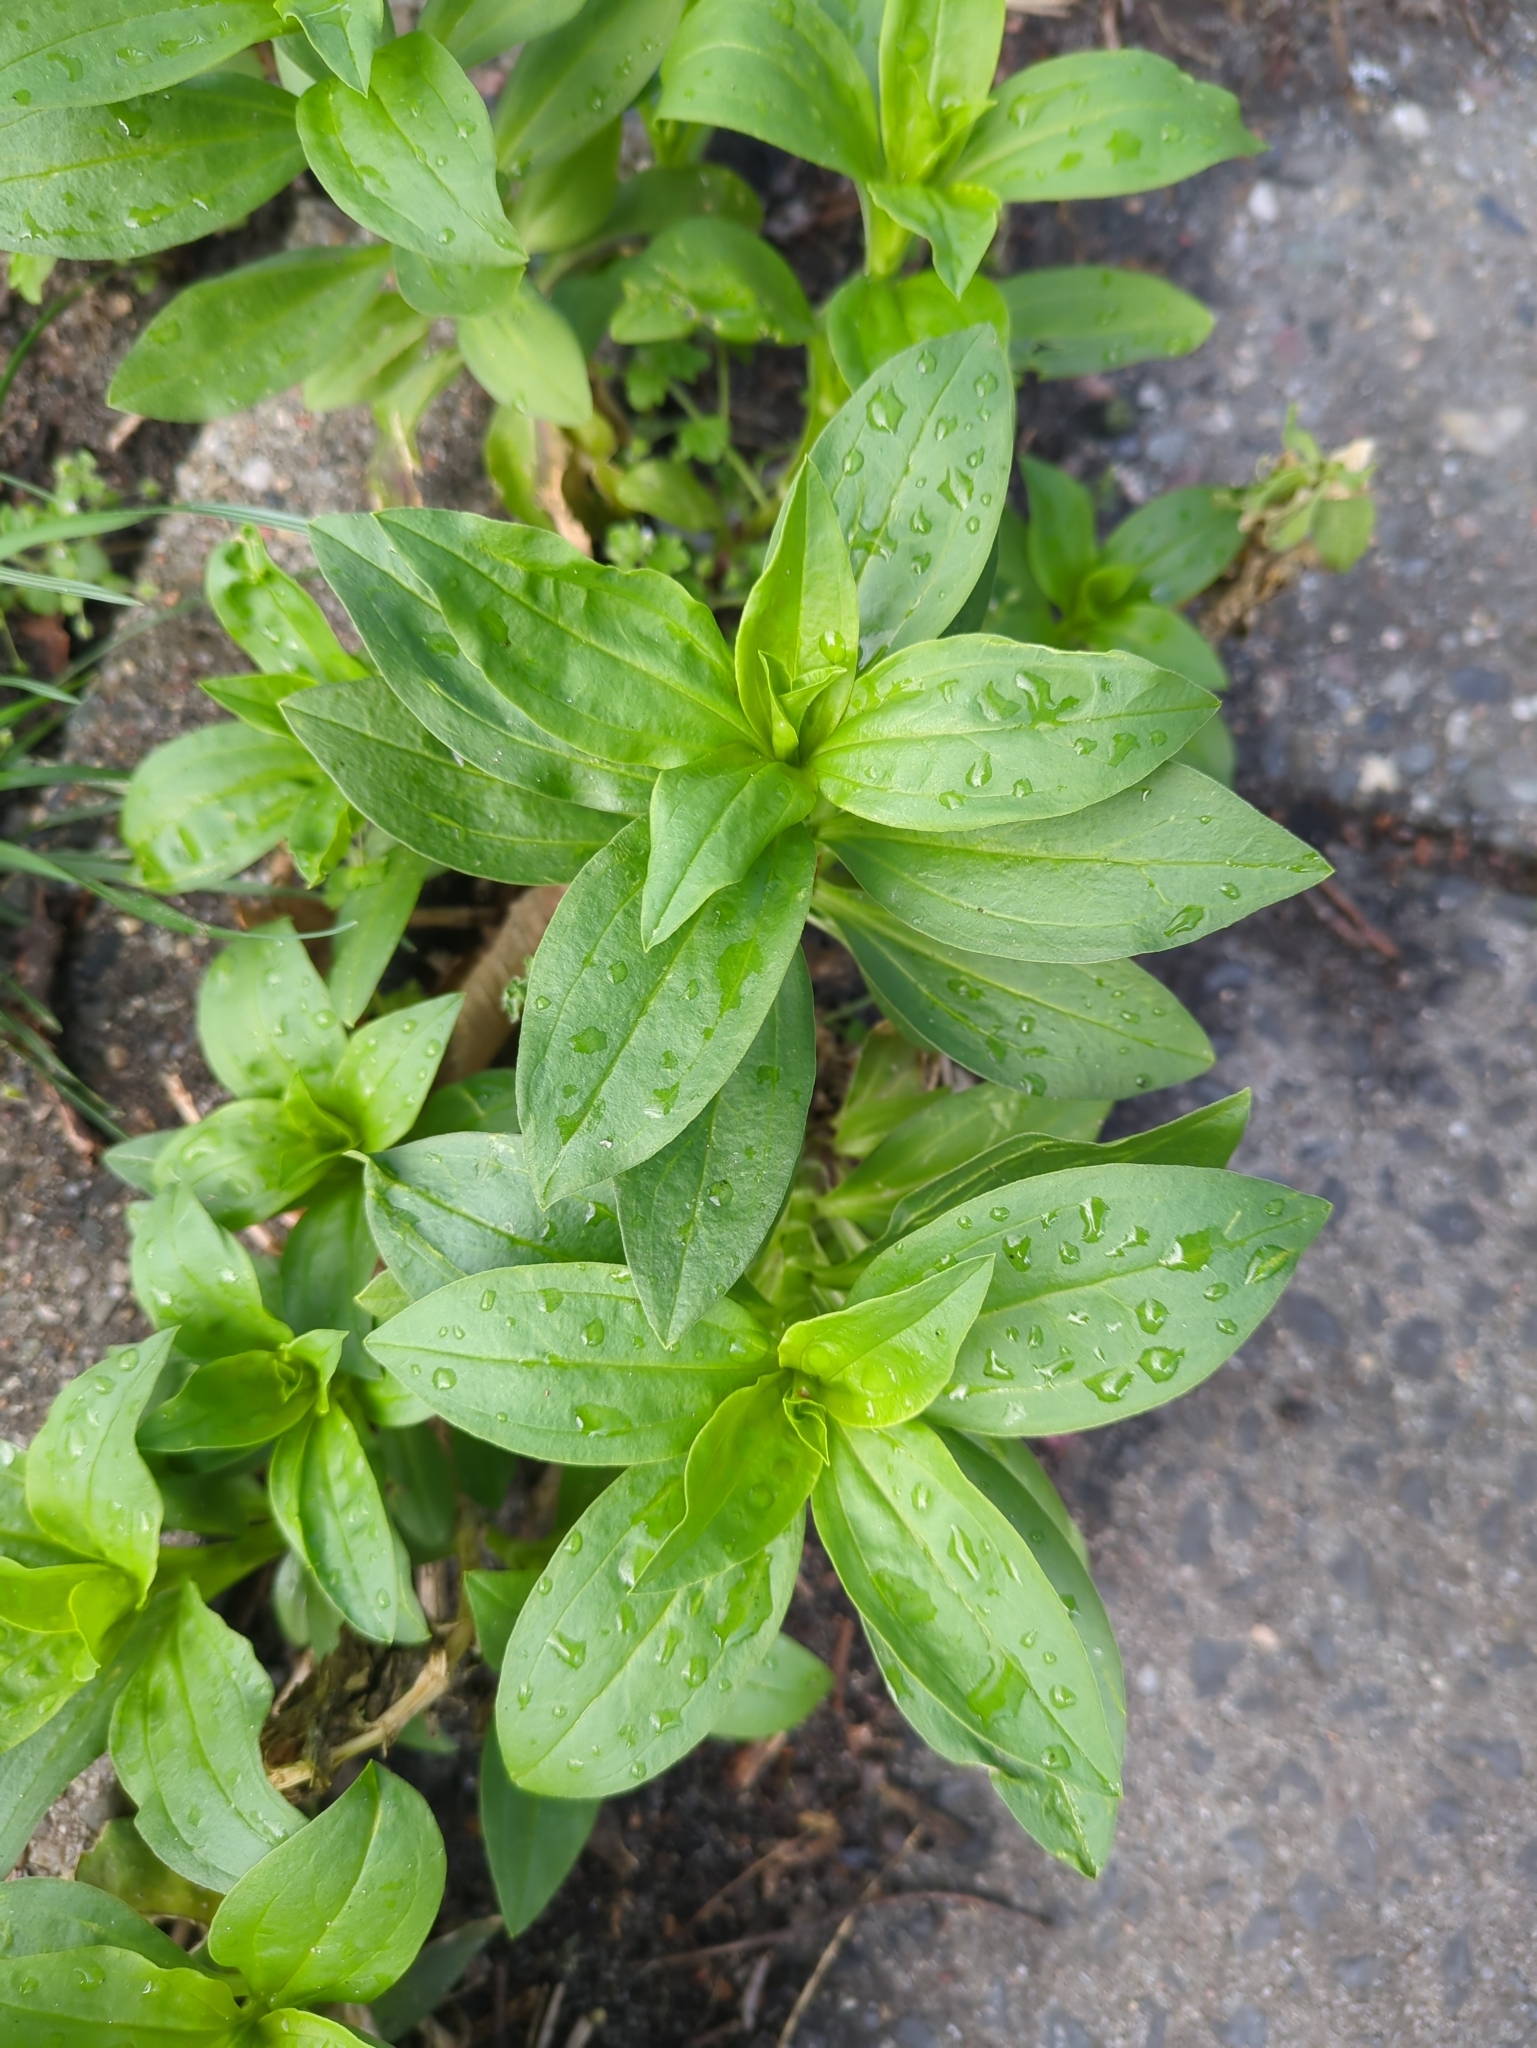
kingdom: Plantae
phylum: Tracheophyta
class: Magnoliopsida
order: Caryophyllales
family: Caryophyllaceae
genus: Saponaria
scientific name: Saponaria officinalis
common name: Soapwort
